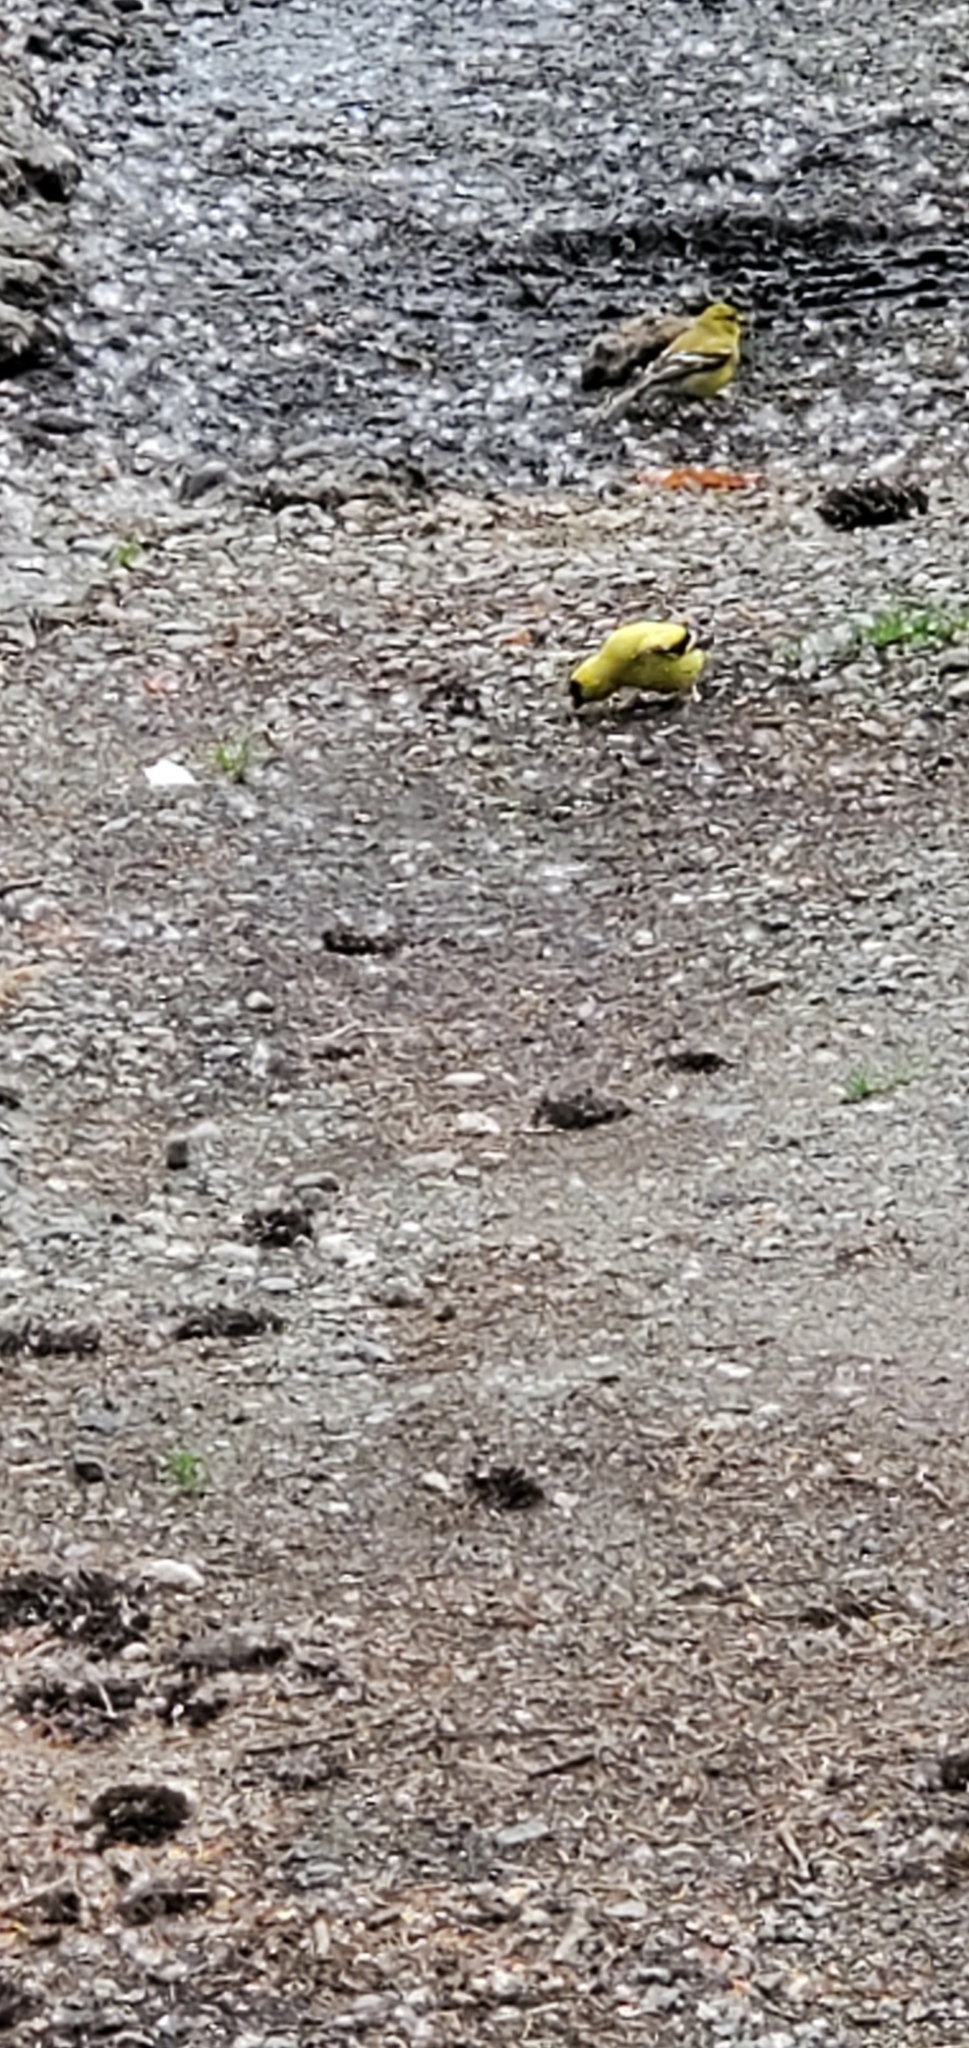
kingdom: Animalia
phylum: Chordata
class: Aves
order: Passeriformes
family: Fringillidae
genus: Spinus
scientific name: Spinus tristis
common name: American goldfinch
